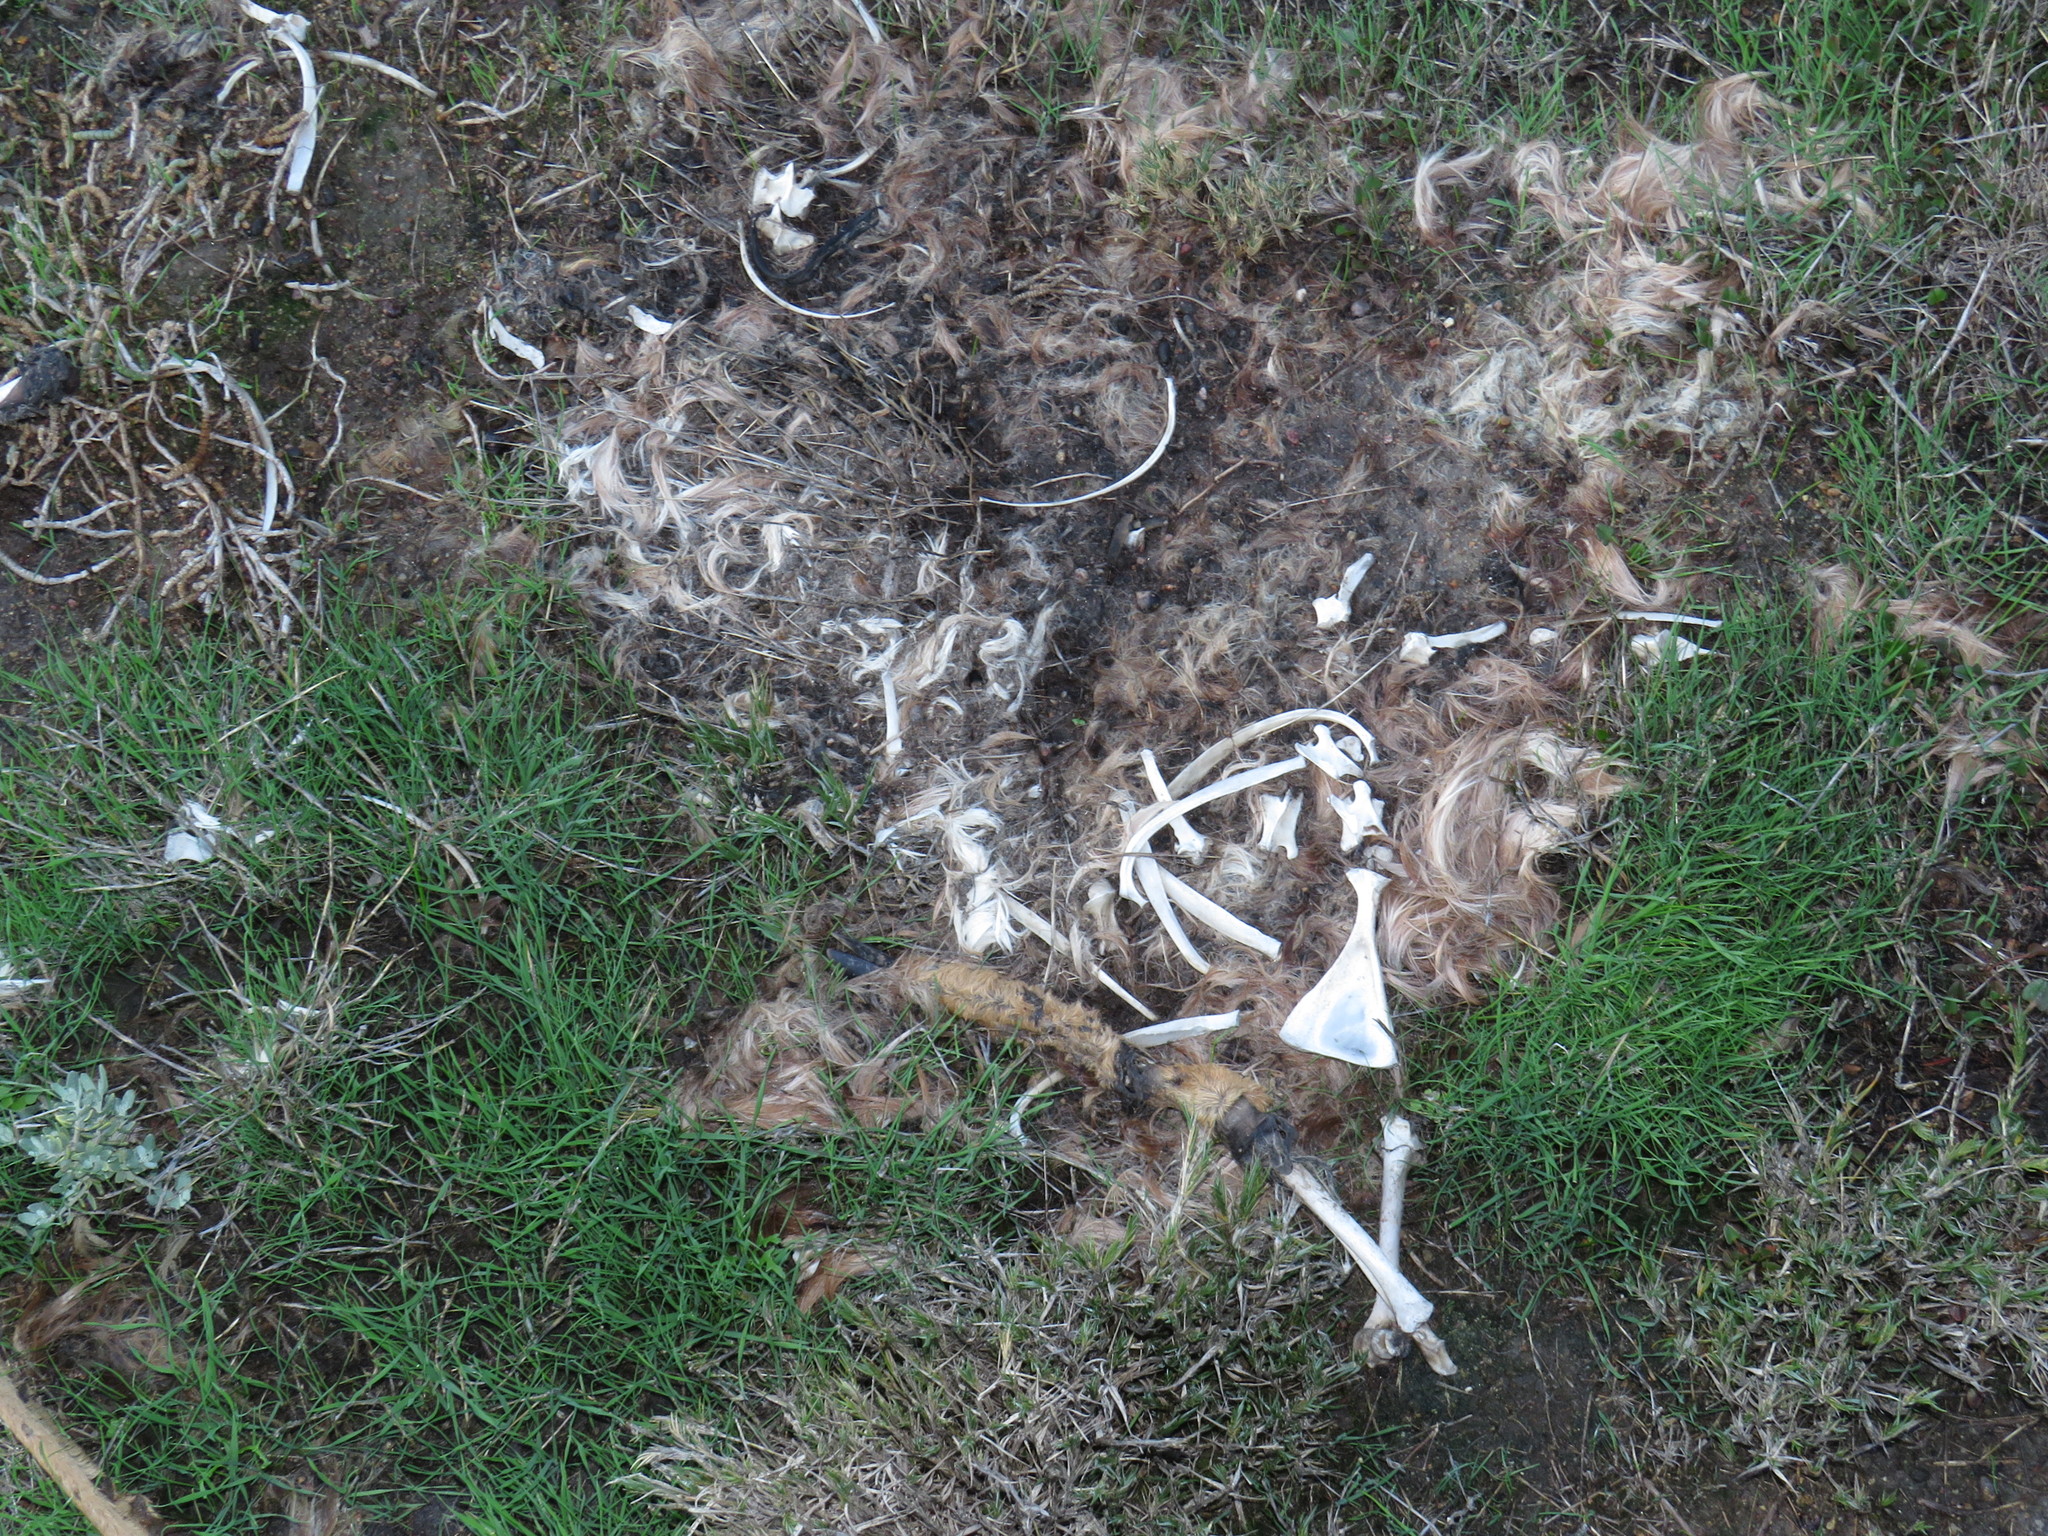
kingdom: Animalia
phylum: Chordata
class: Mammalia
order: Artiodactyla
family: Bovidae
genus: Sylvicapra
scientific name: Sylvicapra grimmia
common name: Bush duiker
